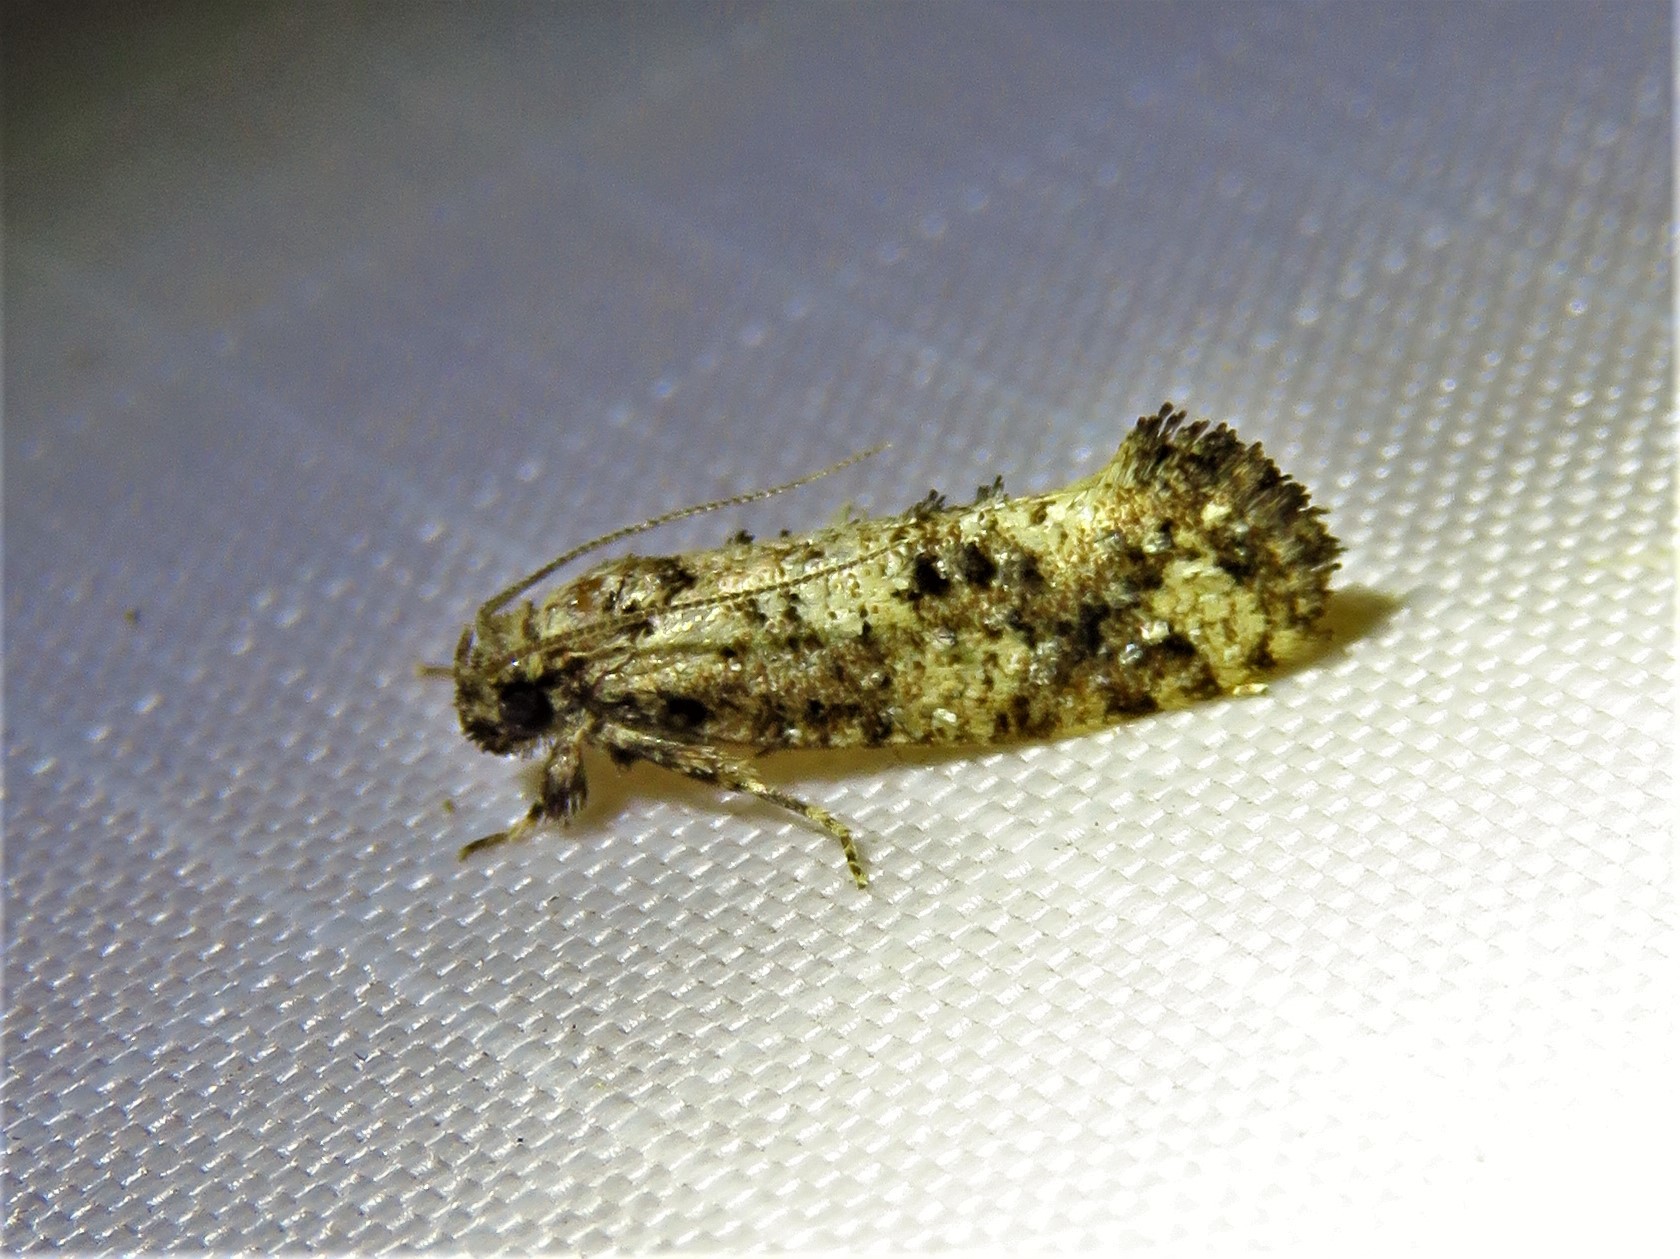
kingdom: Animalia
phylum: Arthropoda
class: Insecta
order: Lepidoptera
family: Tineidae
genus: Acrolophus
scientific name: Acrolophus cressoni
